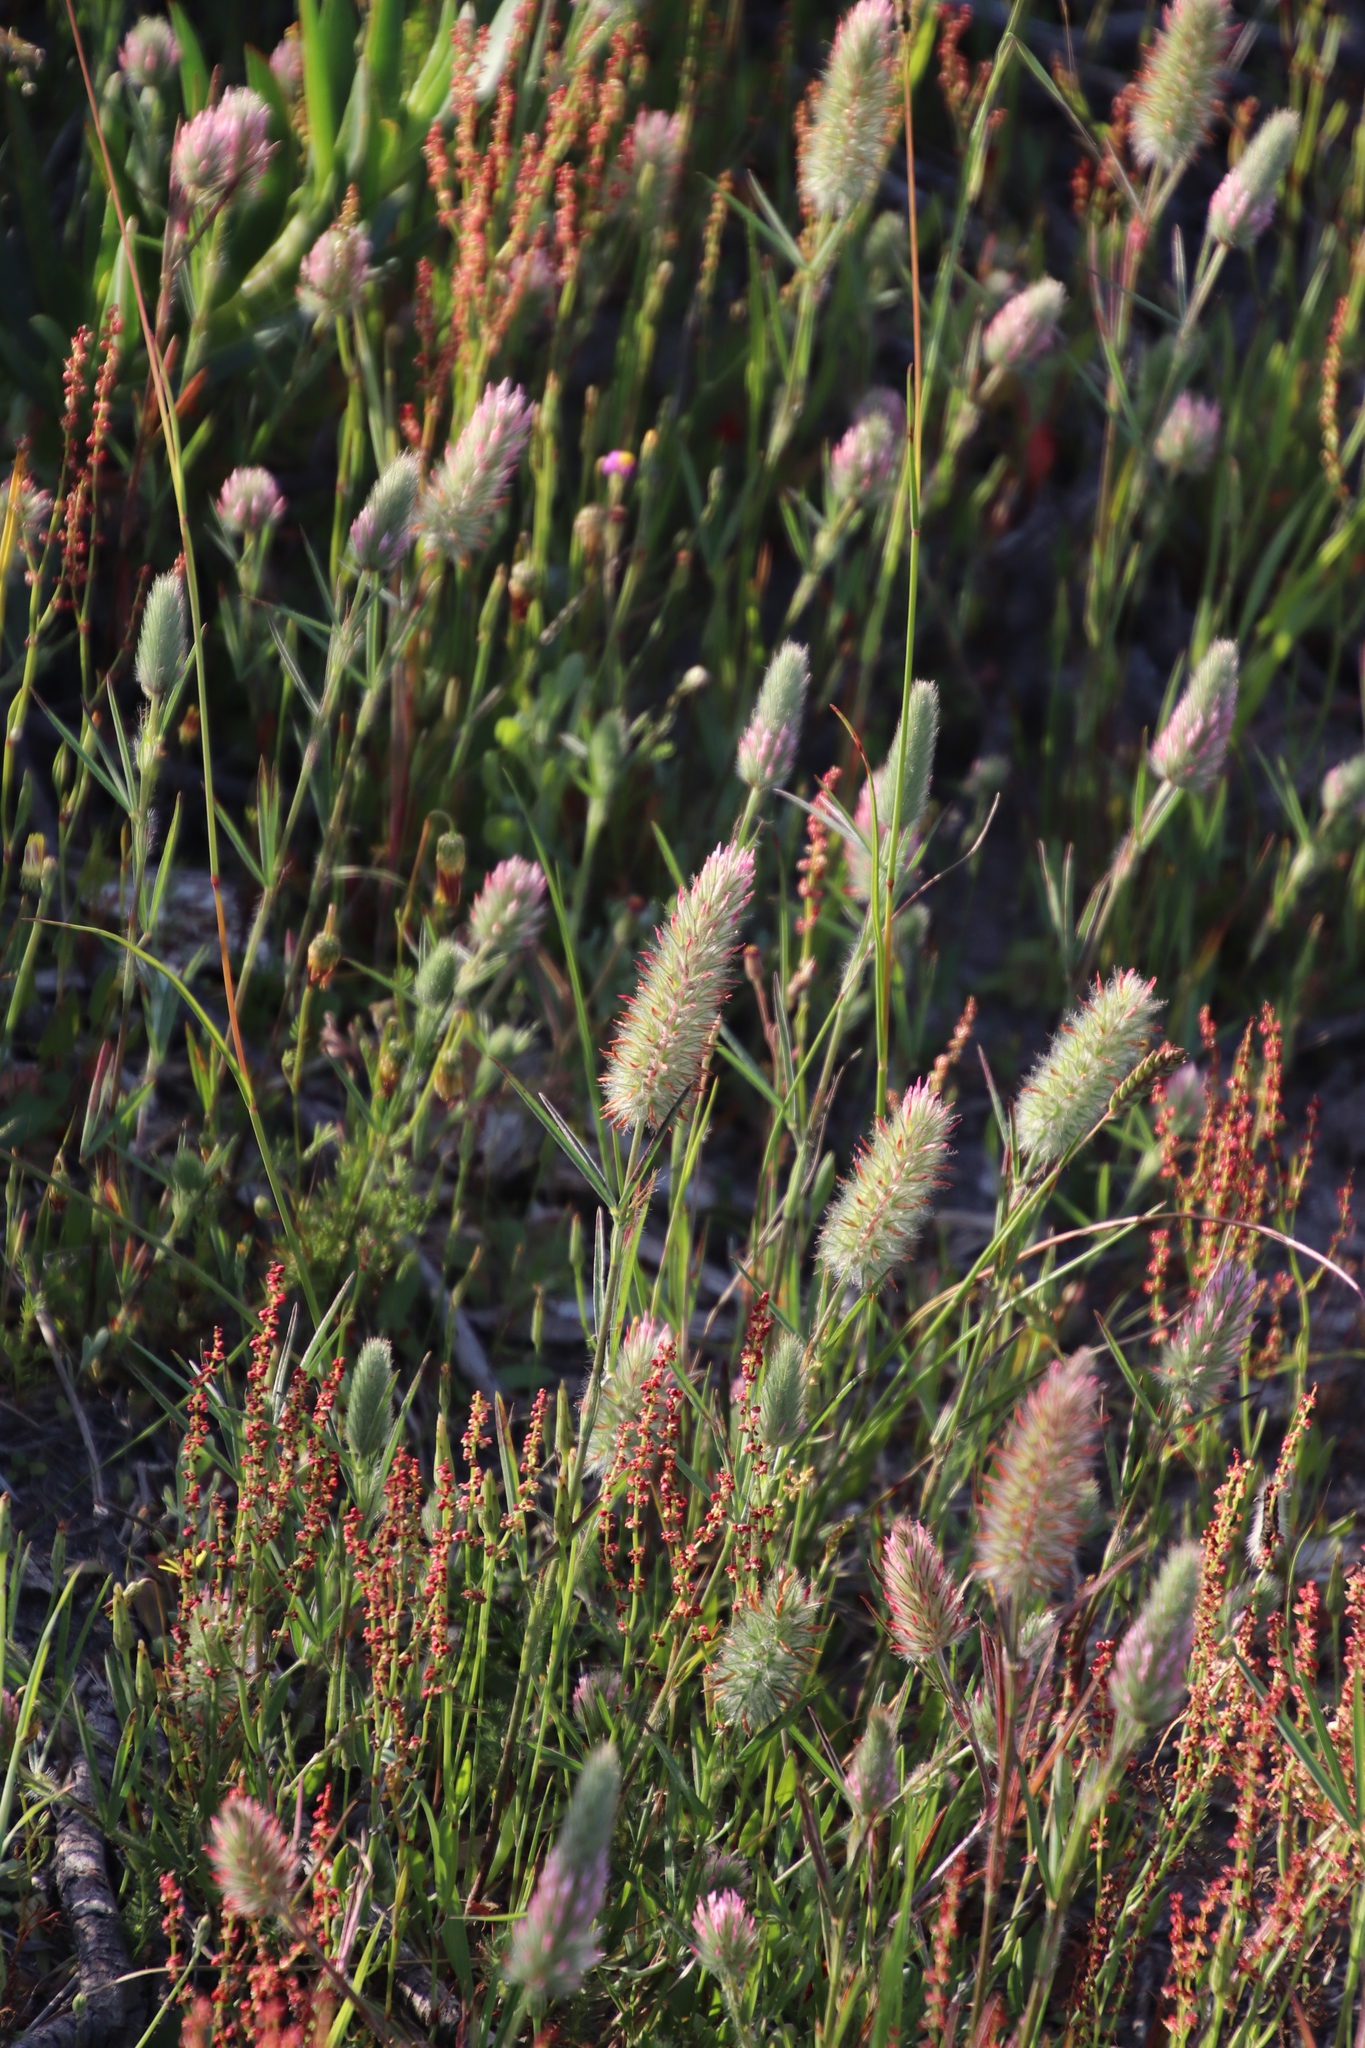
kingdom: Plantae
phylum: Tracheophyta
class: Magnoliopsida
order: Fabales
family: Fabaceae
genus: Trifolium
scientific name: Trifolium angustifolium
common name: Narrow clover
